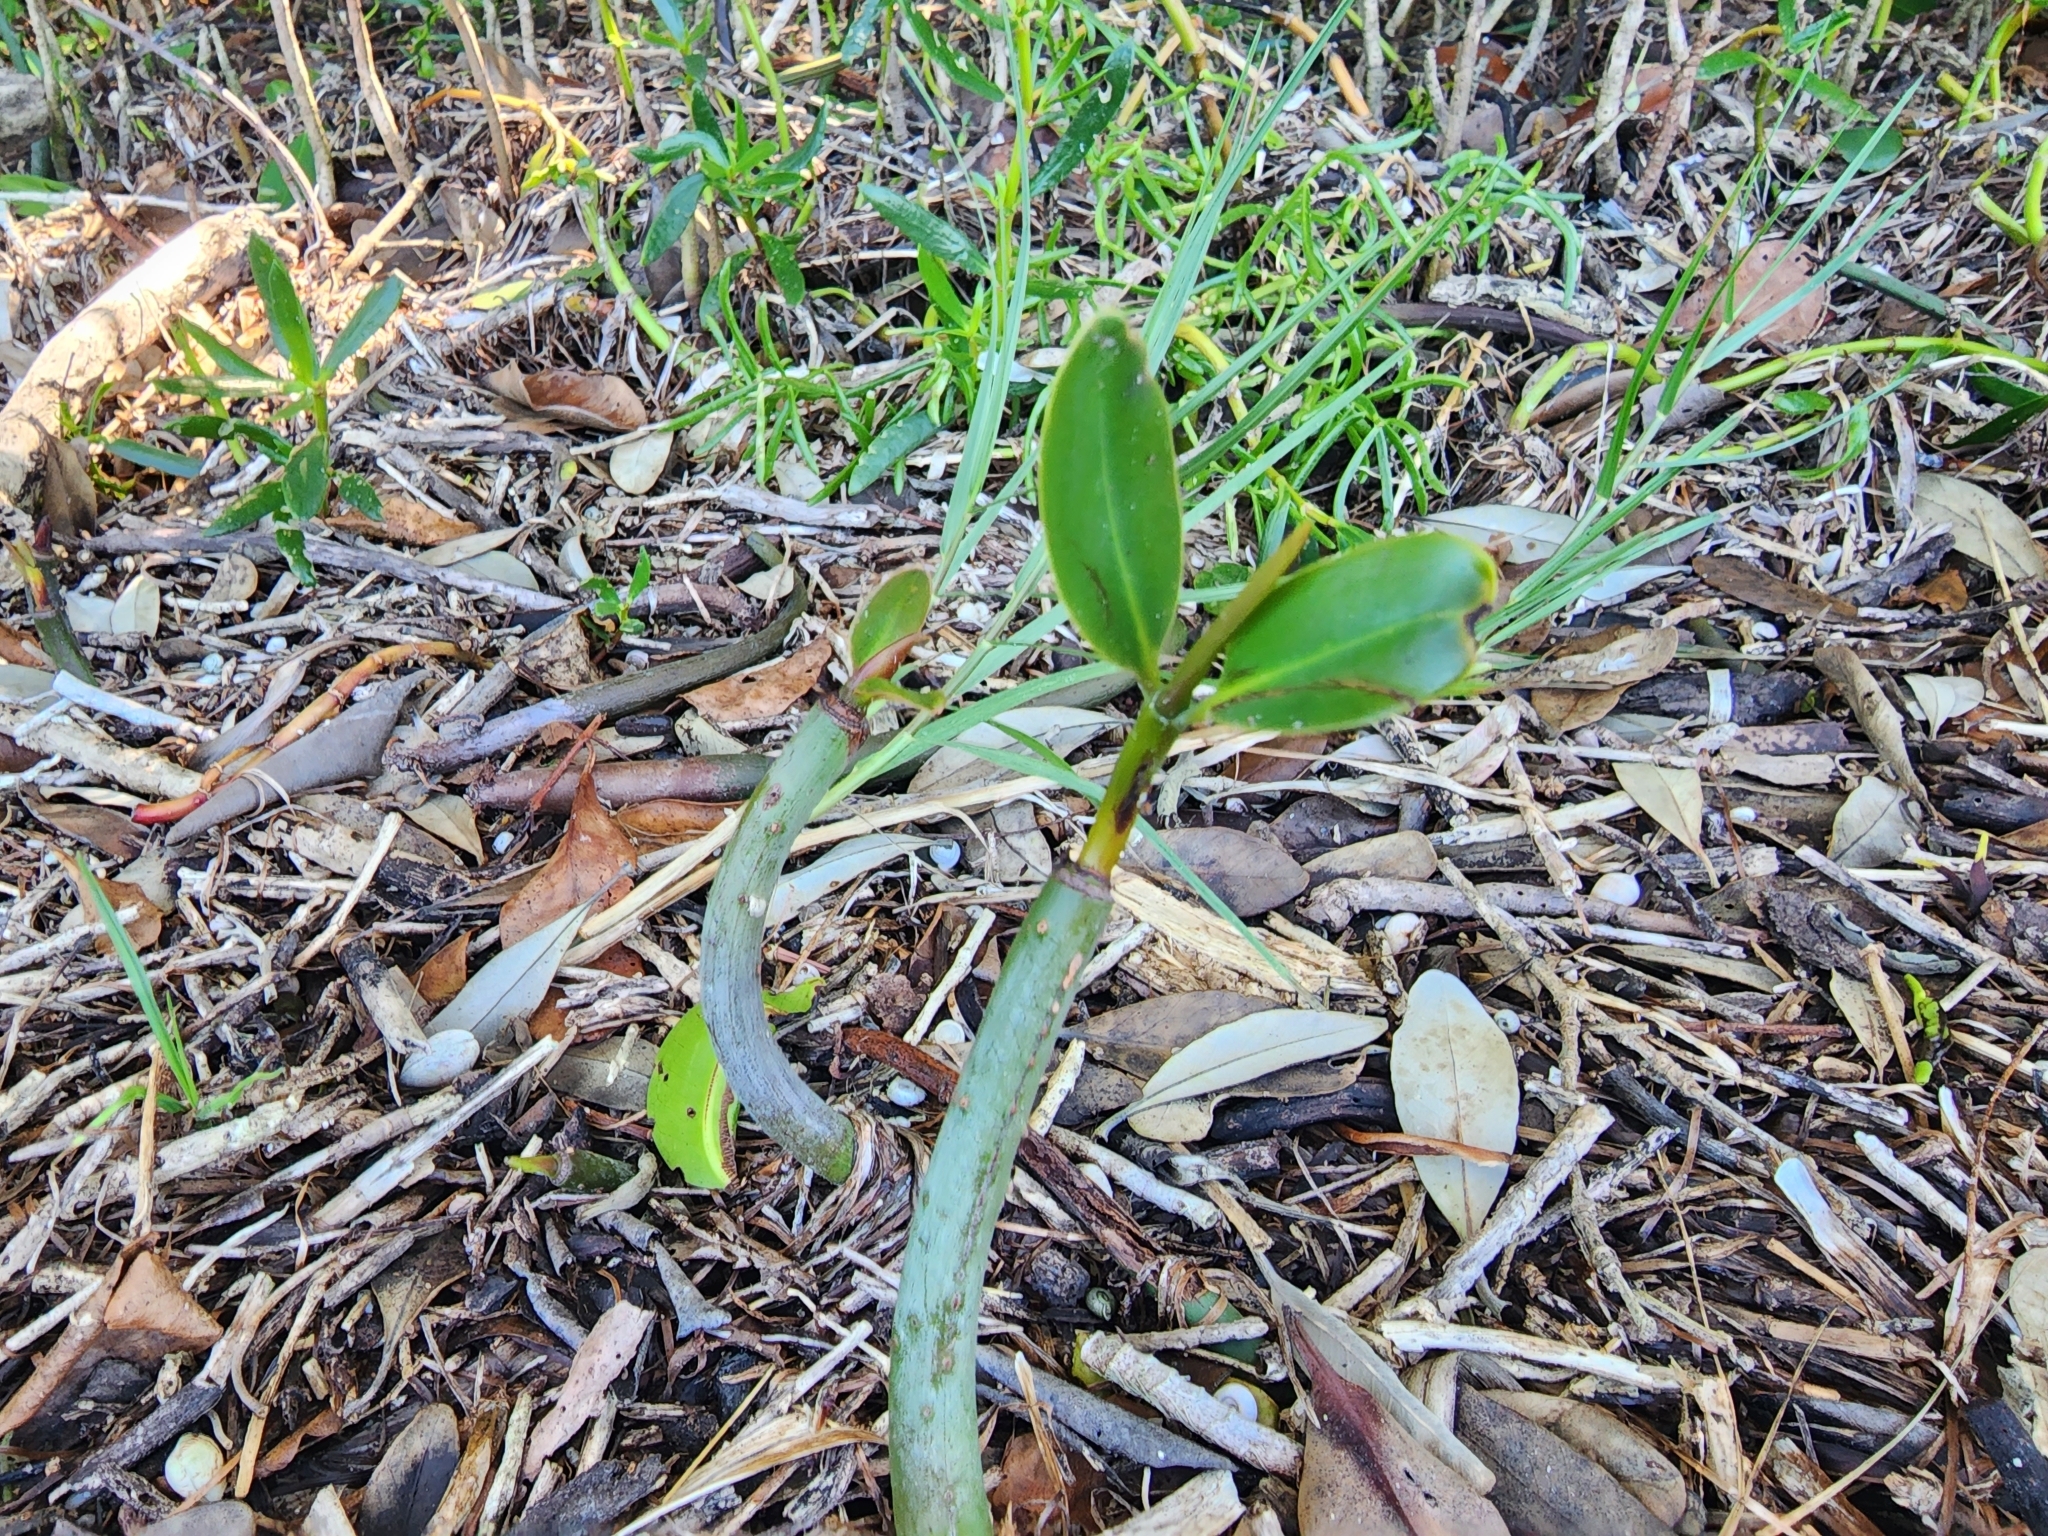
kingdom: Plantae
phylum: Tracheophyta
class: Magnoliopsida
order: Malpighiales
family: Rhizophoraceae
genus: Rhizophora
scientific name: Rhizophora mangle
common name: Red mangrove
